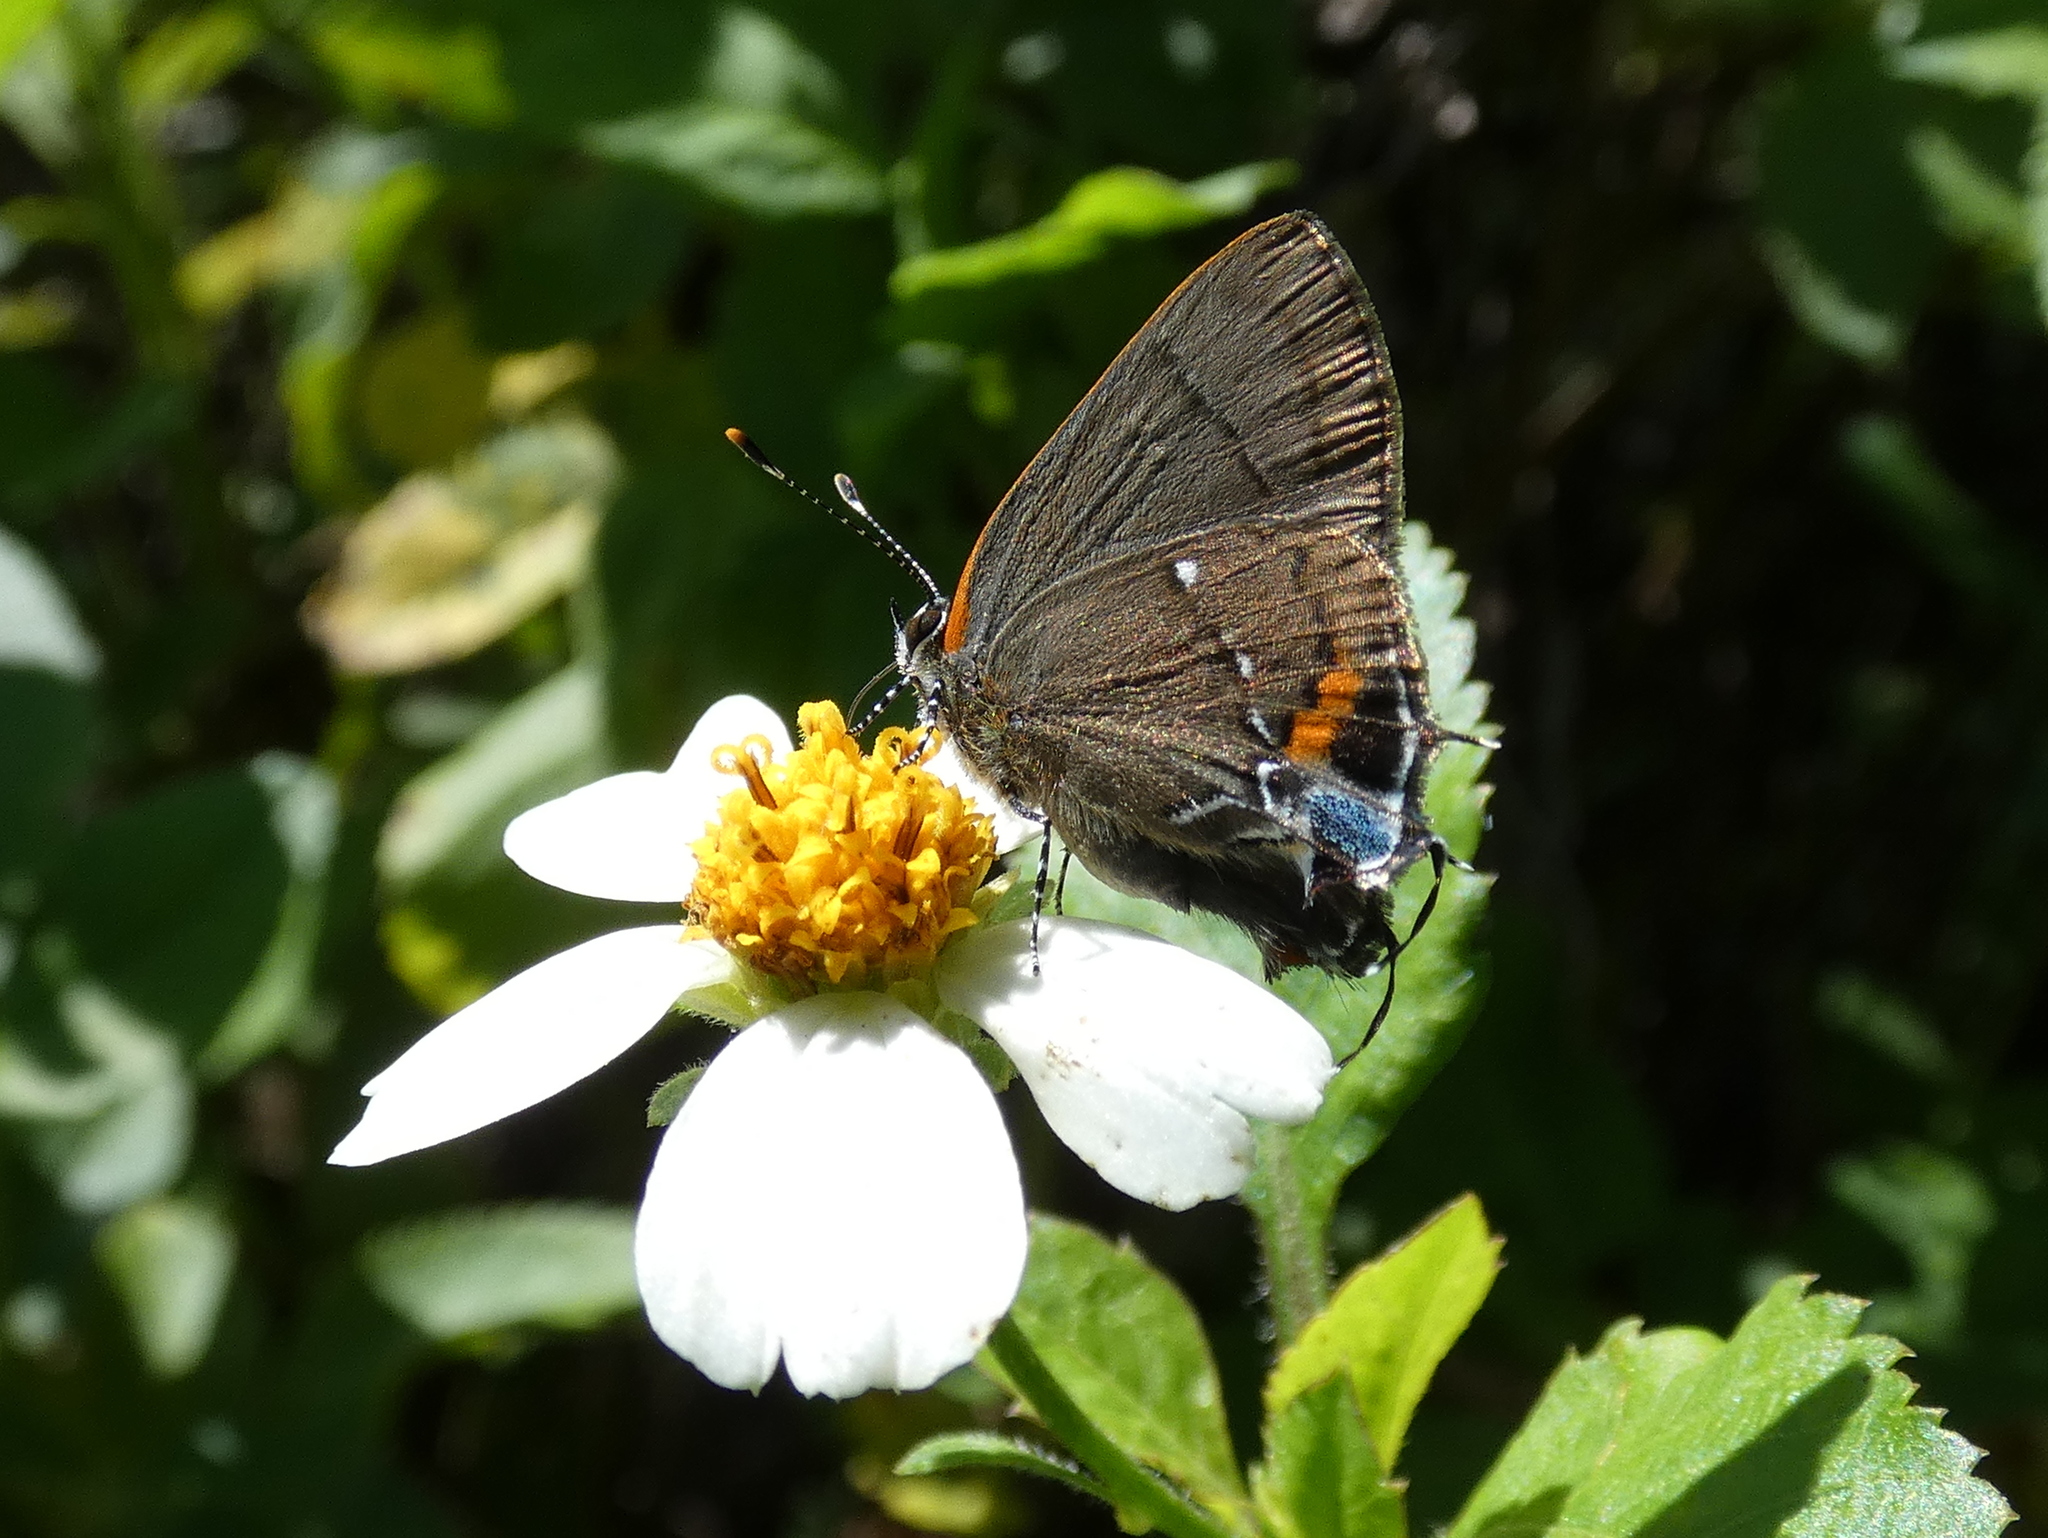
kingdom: Animalia
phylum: Arthropoda
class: Insecta
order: Lepidoptera
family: Lycaenidae
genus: Thecla
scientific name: Thecla angelia
